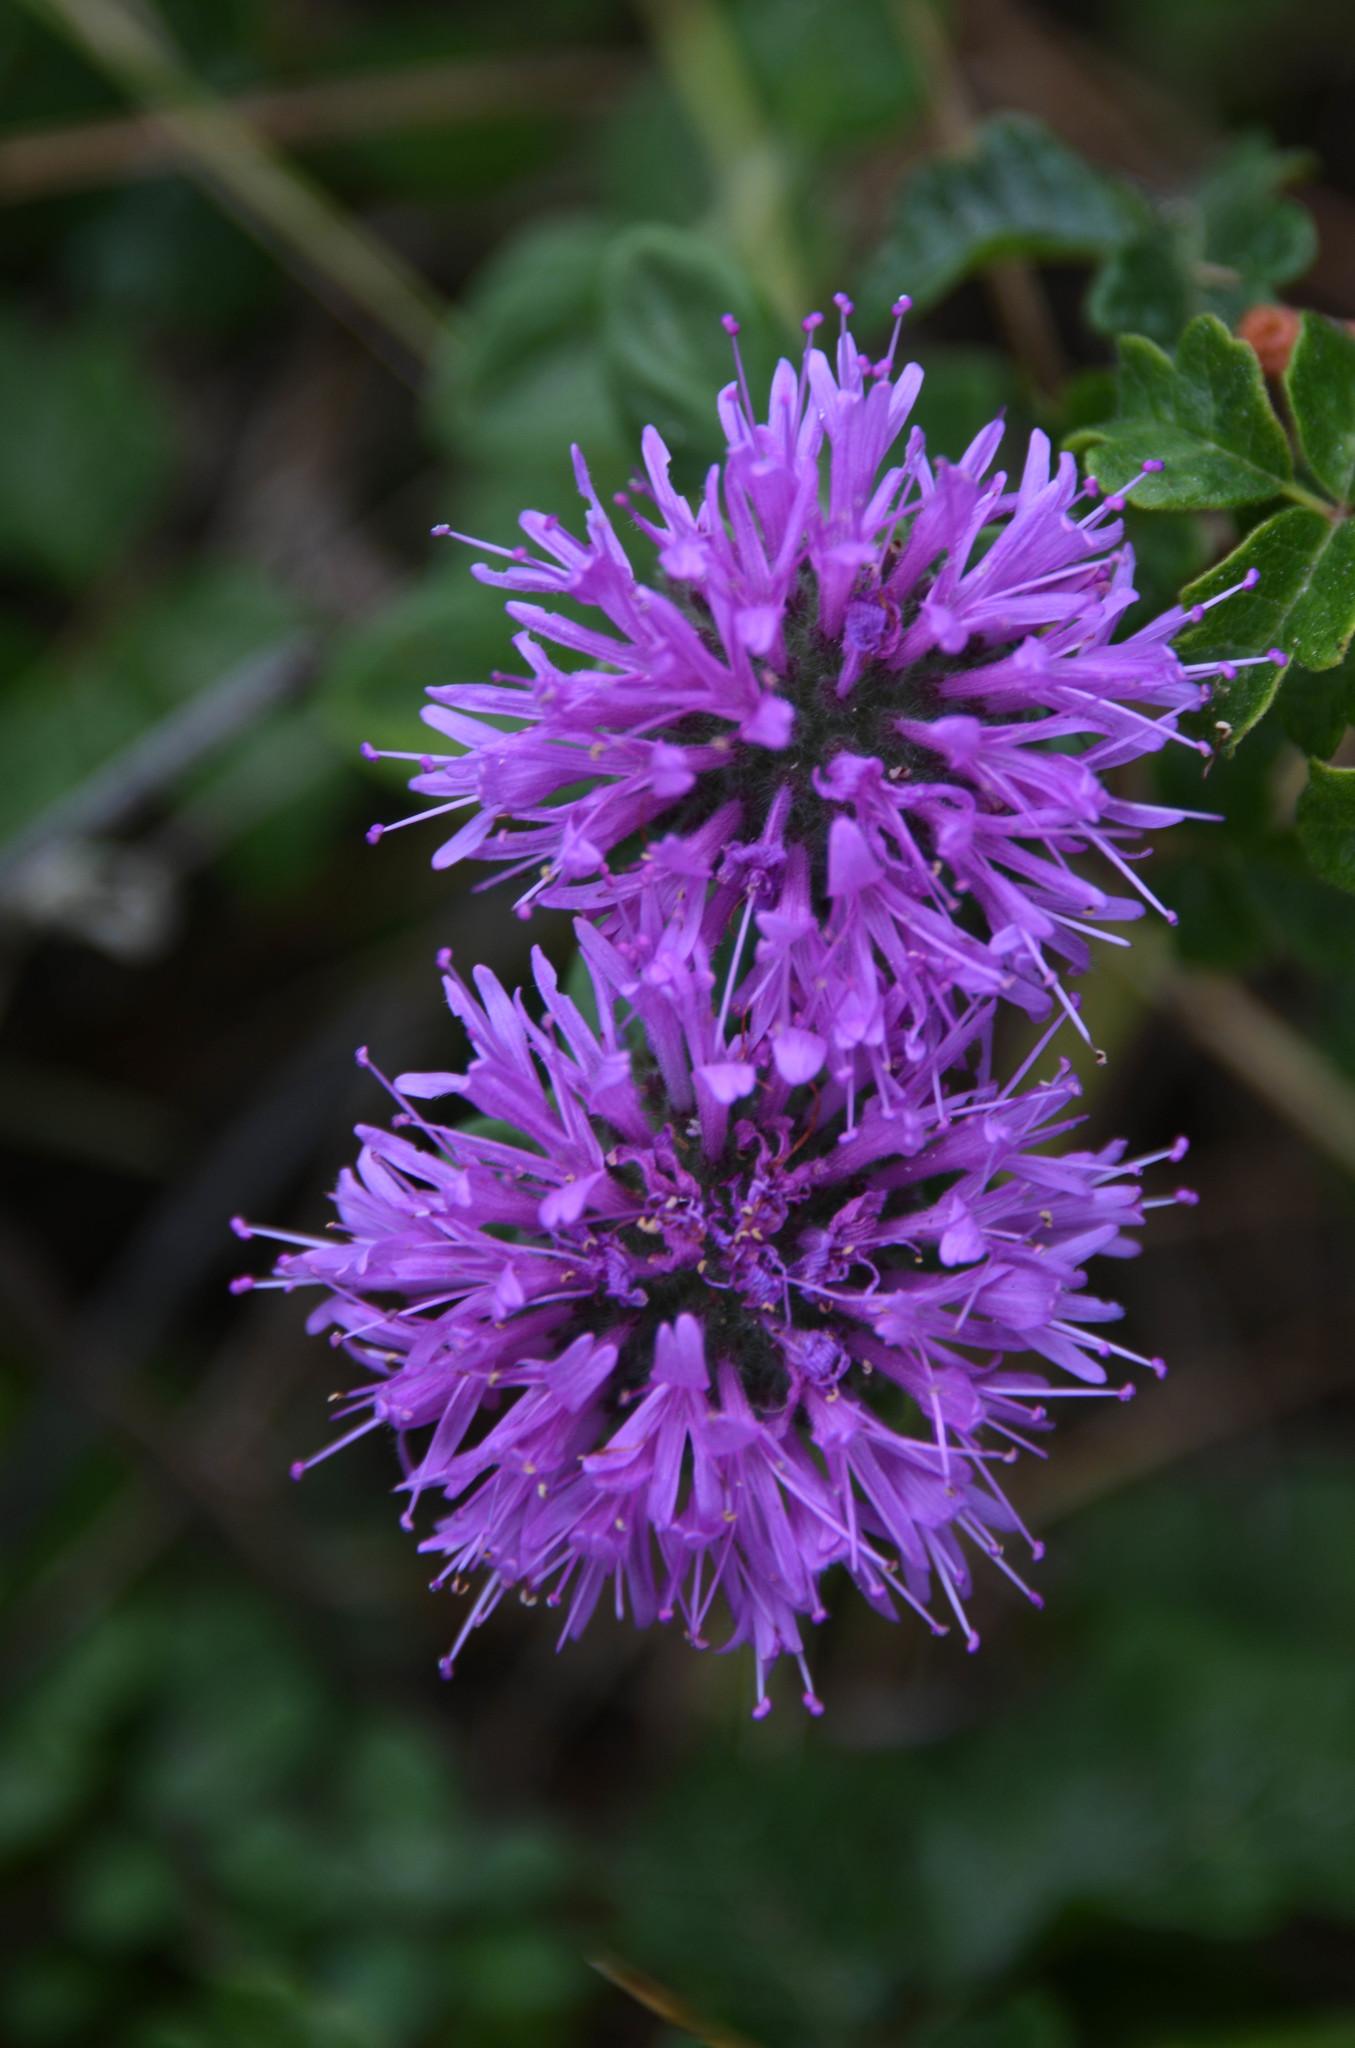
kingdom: Plantae
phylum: Tracheophyta
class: Magnoliopsida
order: Lamiales
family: Lamiaceae
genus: Monardella
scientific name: Monardella odoratissima
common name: Pacific monardella
